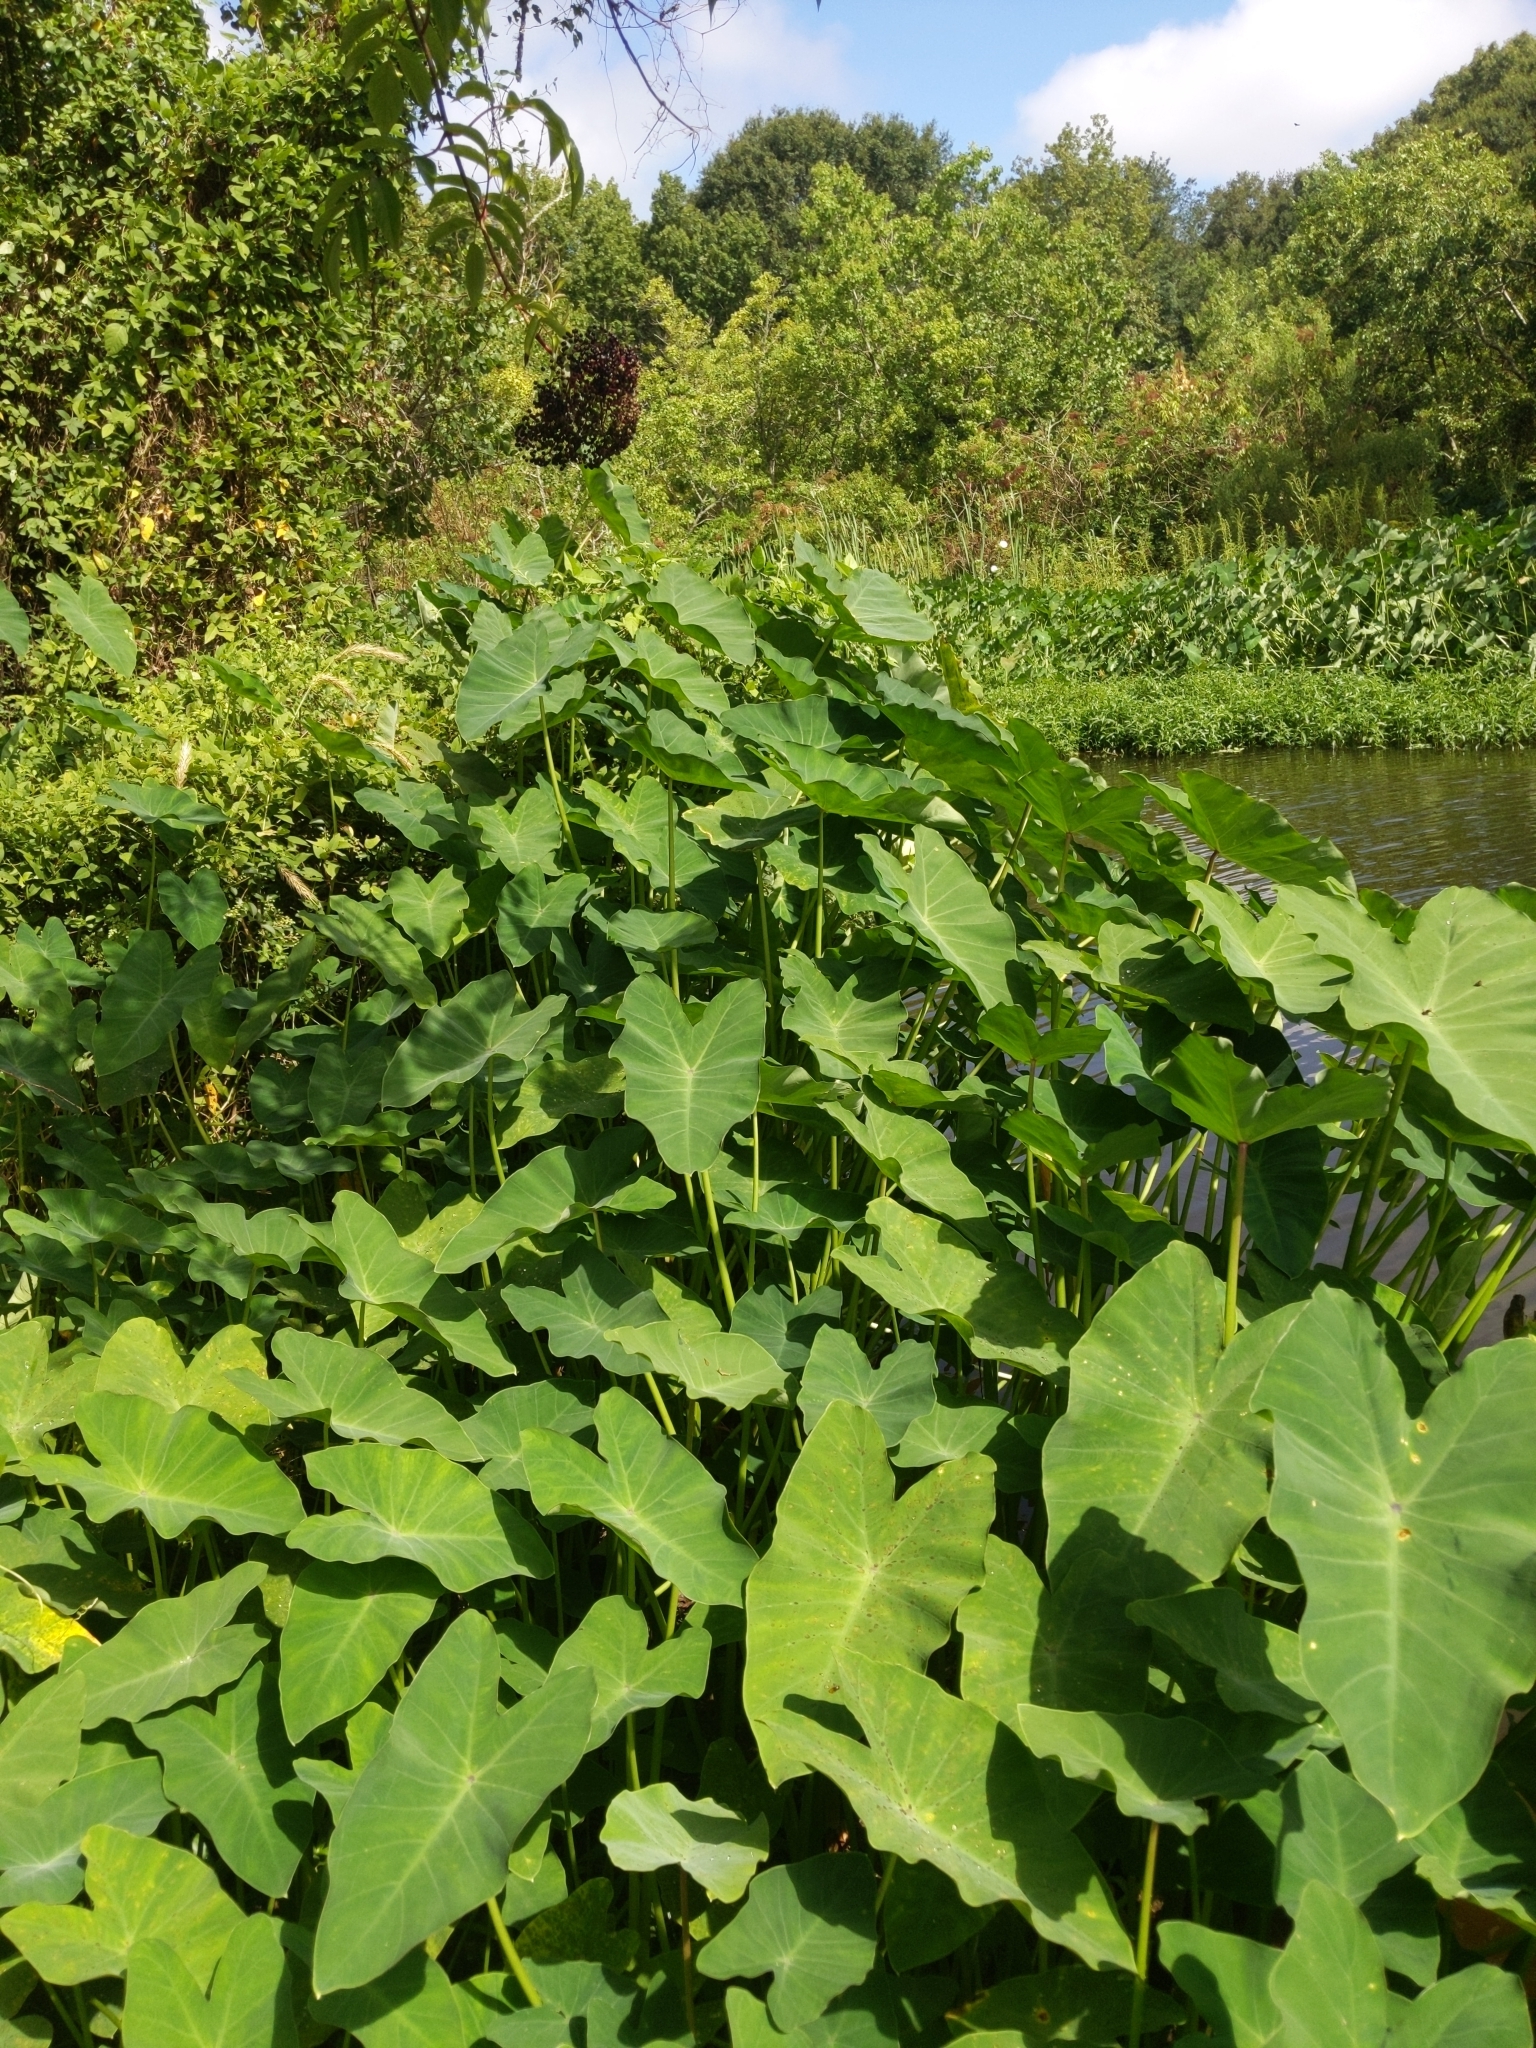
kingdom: Plantae
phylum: Tracheophyta
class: Liliopsida
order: Alismatales
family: Araceae
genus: Colocasia
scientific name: Colocasia esculenta
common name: Taro
